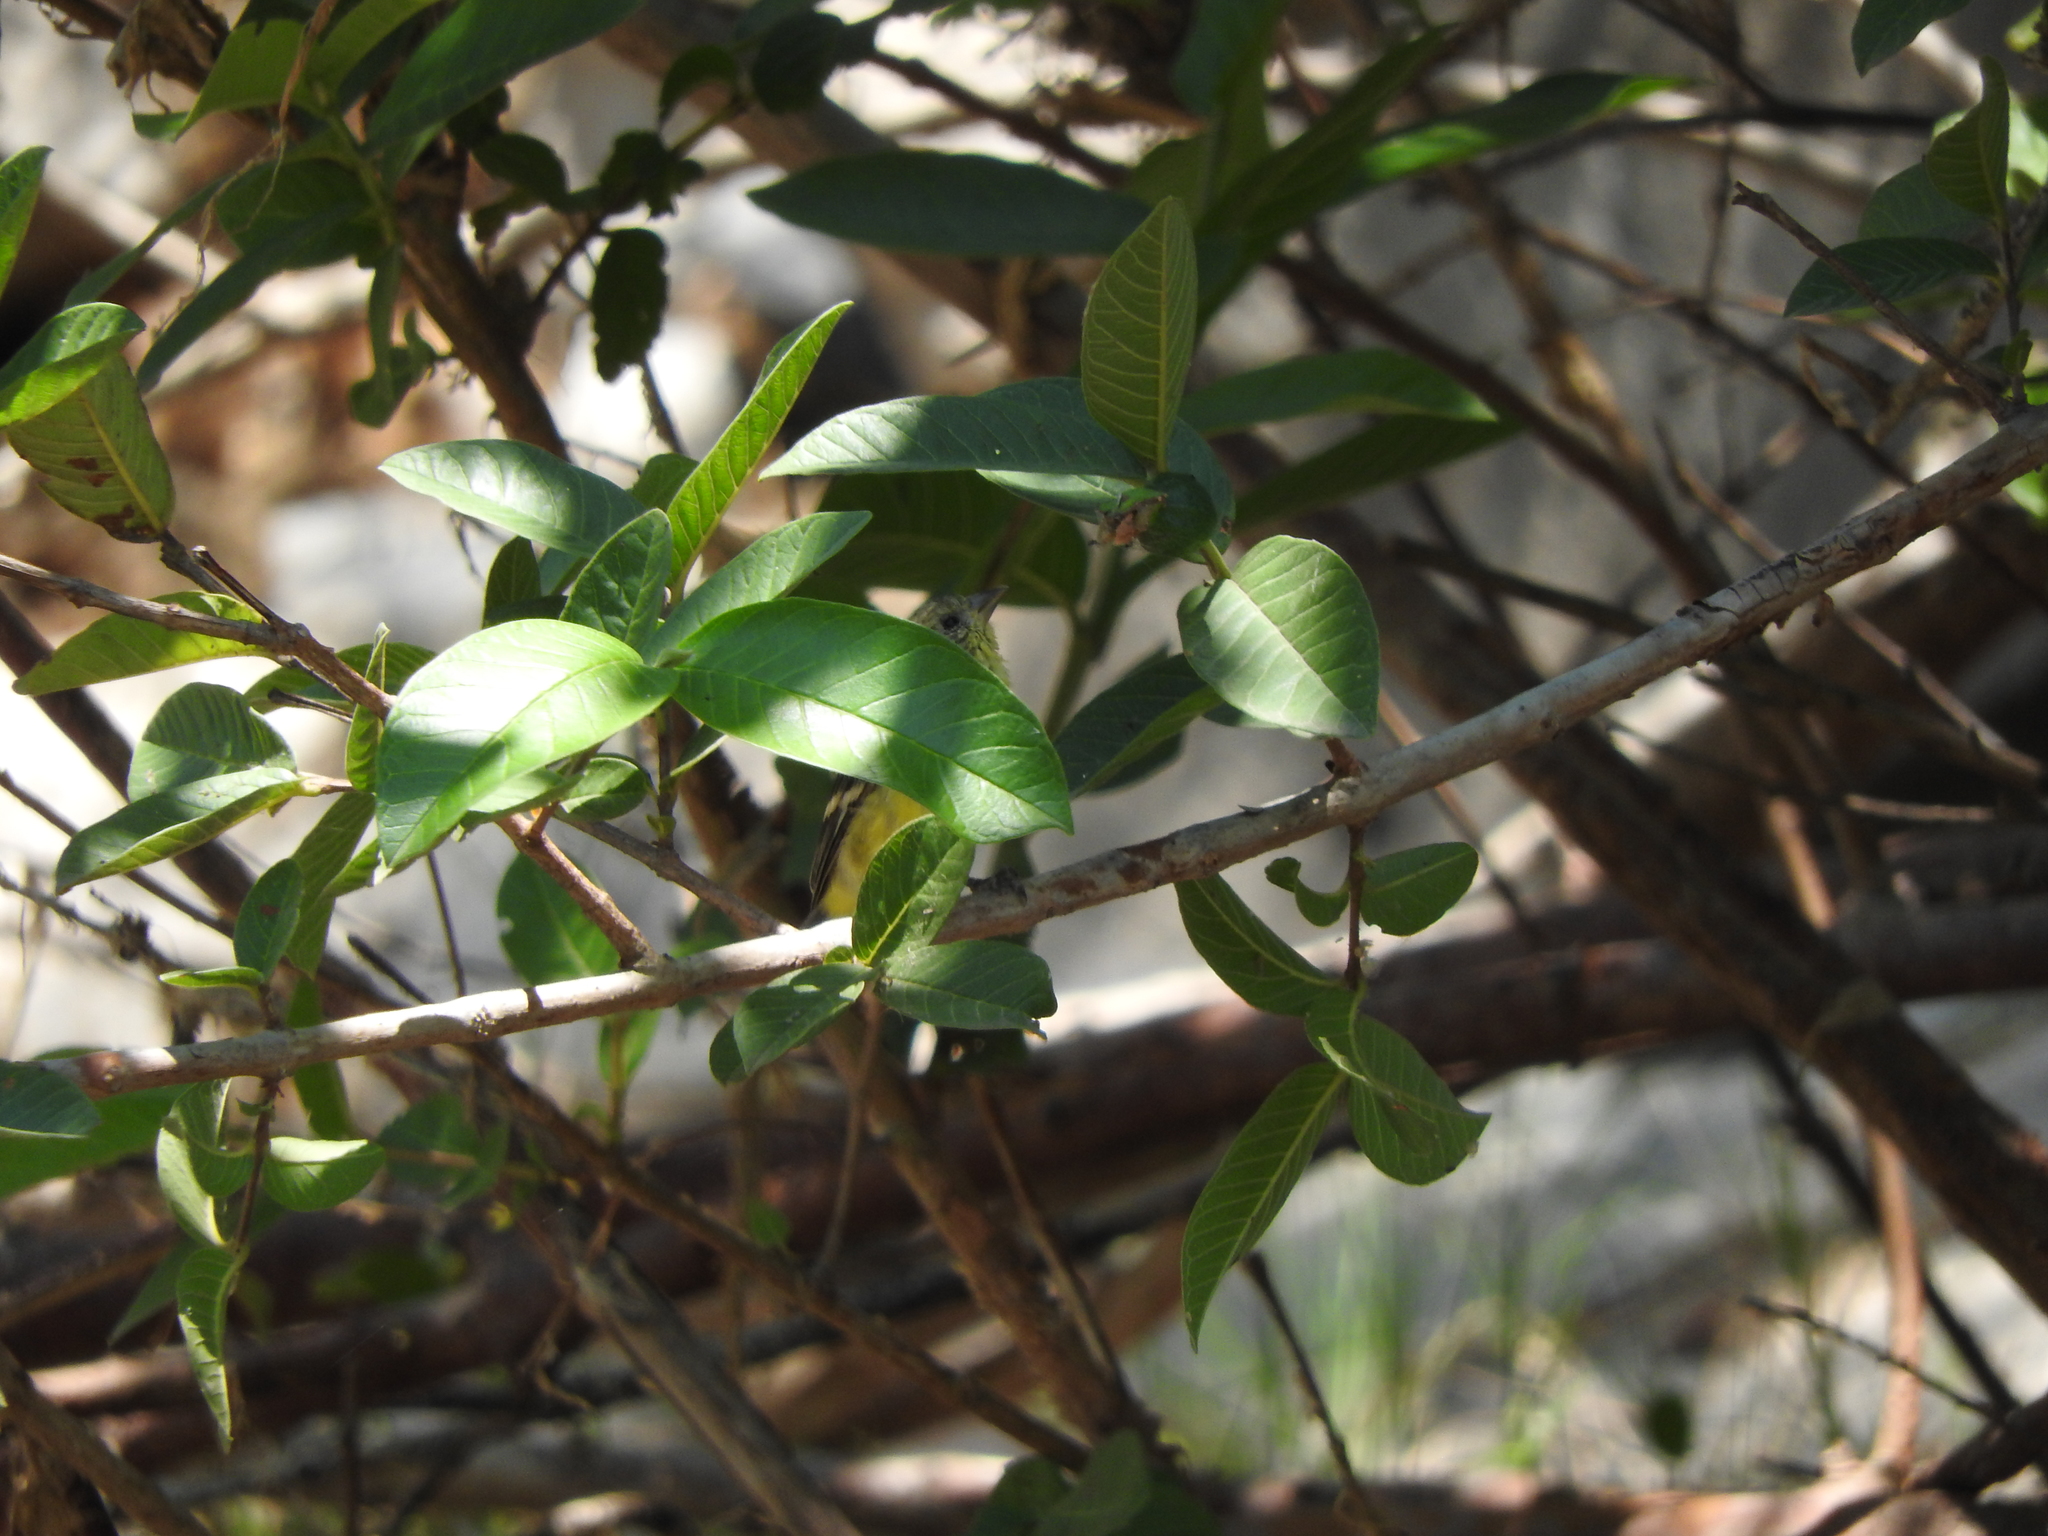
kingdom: Animalia
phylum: Chordata
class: Aves
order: Passeriformes
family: Fringillidae
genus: Spinus
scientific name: Spinus psaltria
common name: Lesser goldfinch
